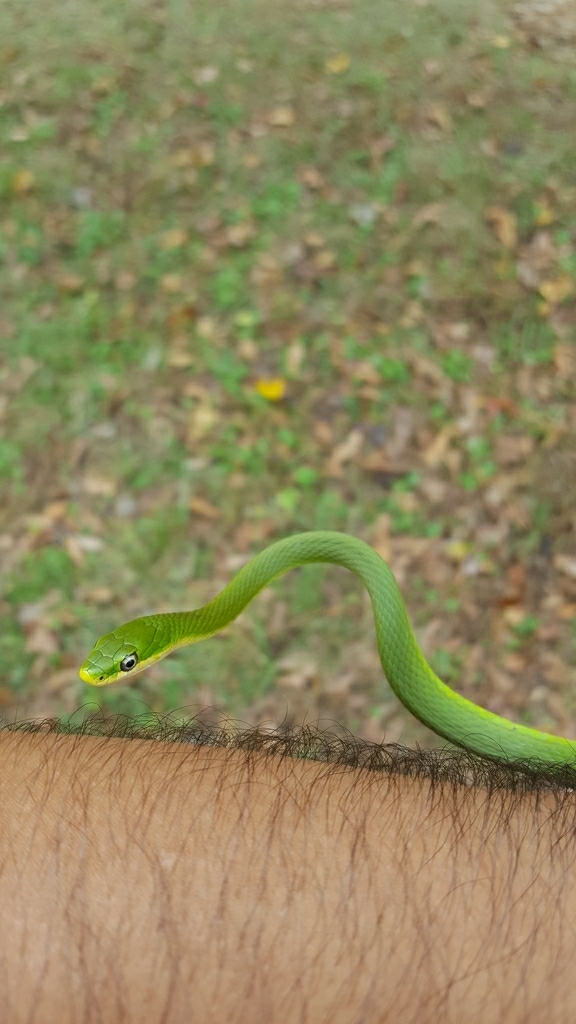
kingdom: Animalia
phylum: Chordata
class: Squamata
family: Colubridae
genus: Opheodrys
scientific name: Opheodrys aestivus
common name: Rough greensnake
